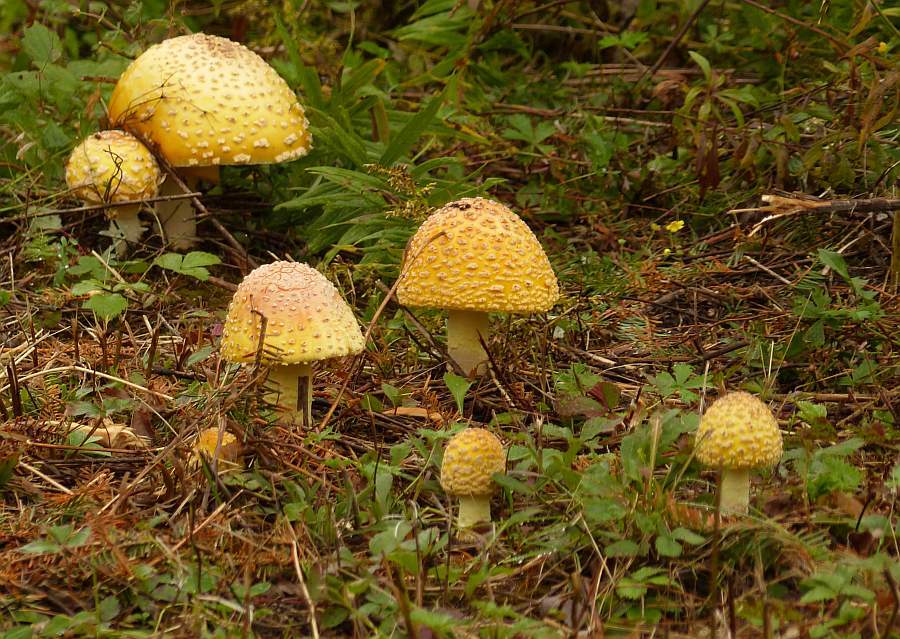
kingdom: Fungi
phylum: Basidiomycota
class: Agaricomycetes
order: Agaricales
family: Amanitaceae
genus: Amanita
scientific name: Amanita muscaria
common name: Fly agaric
